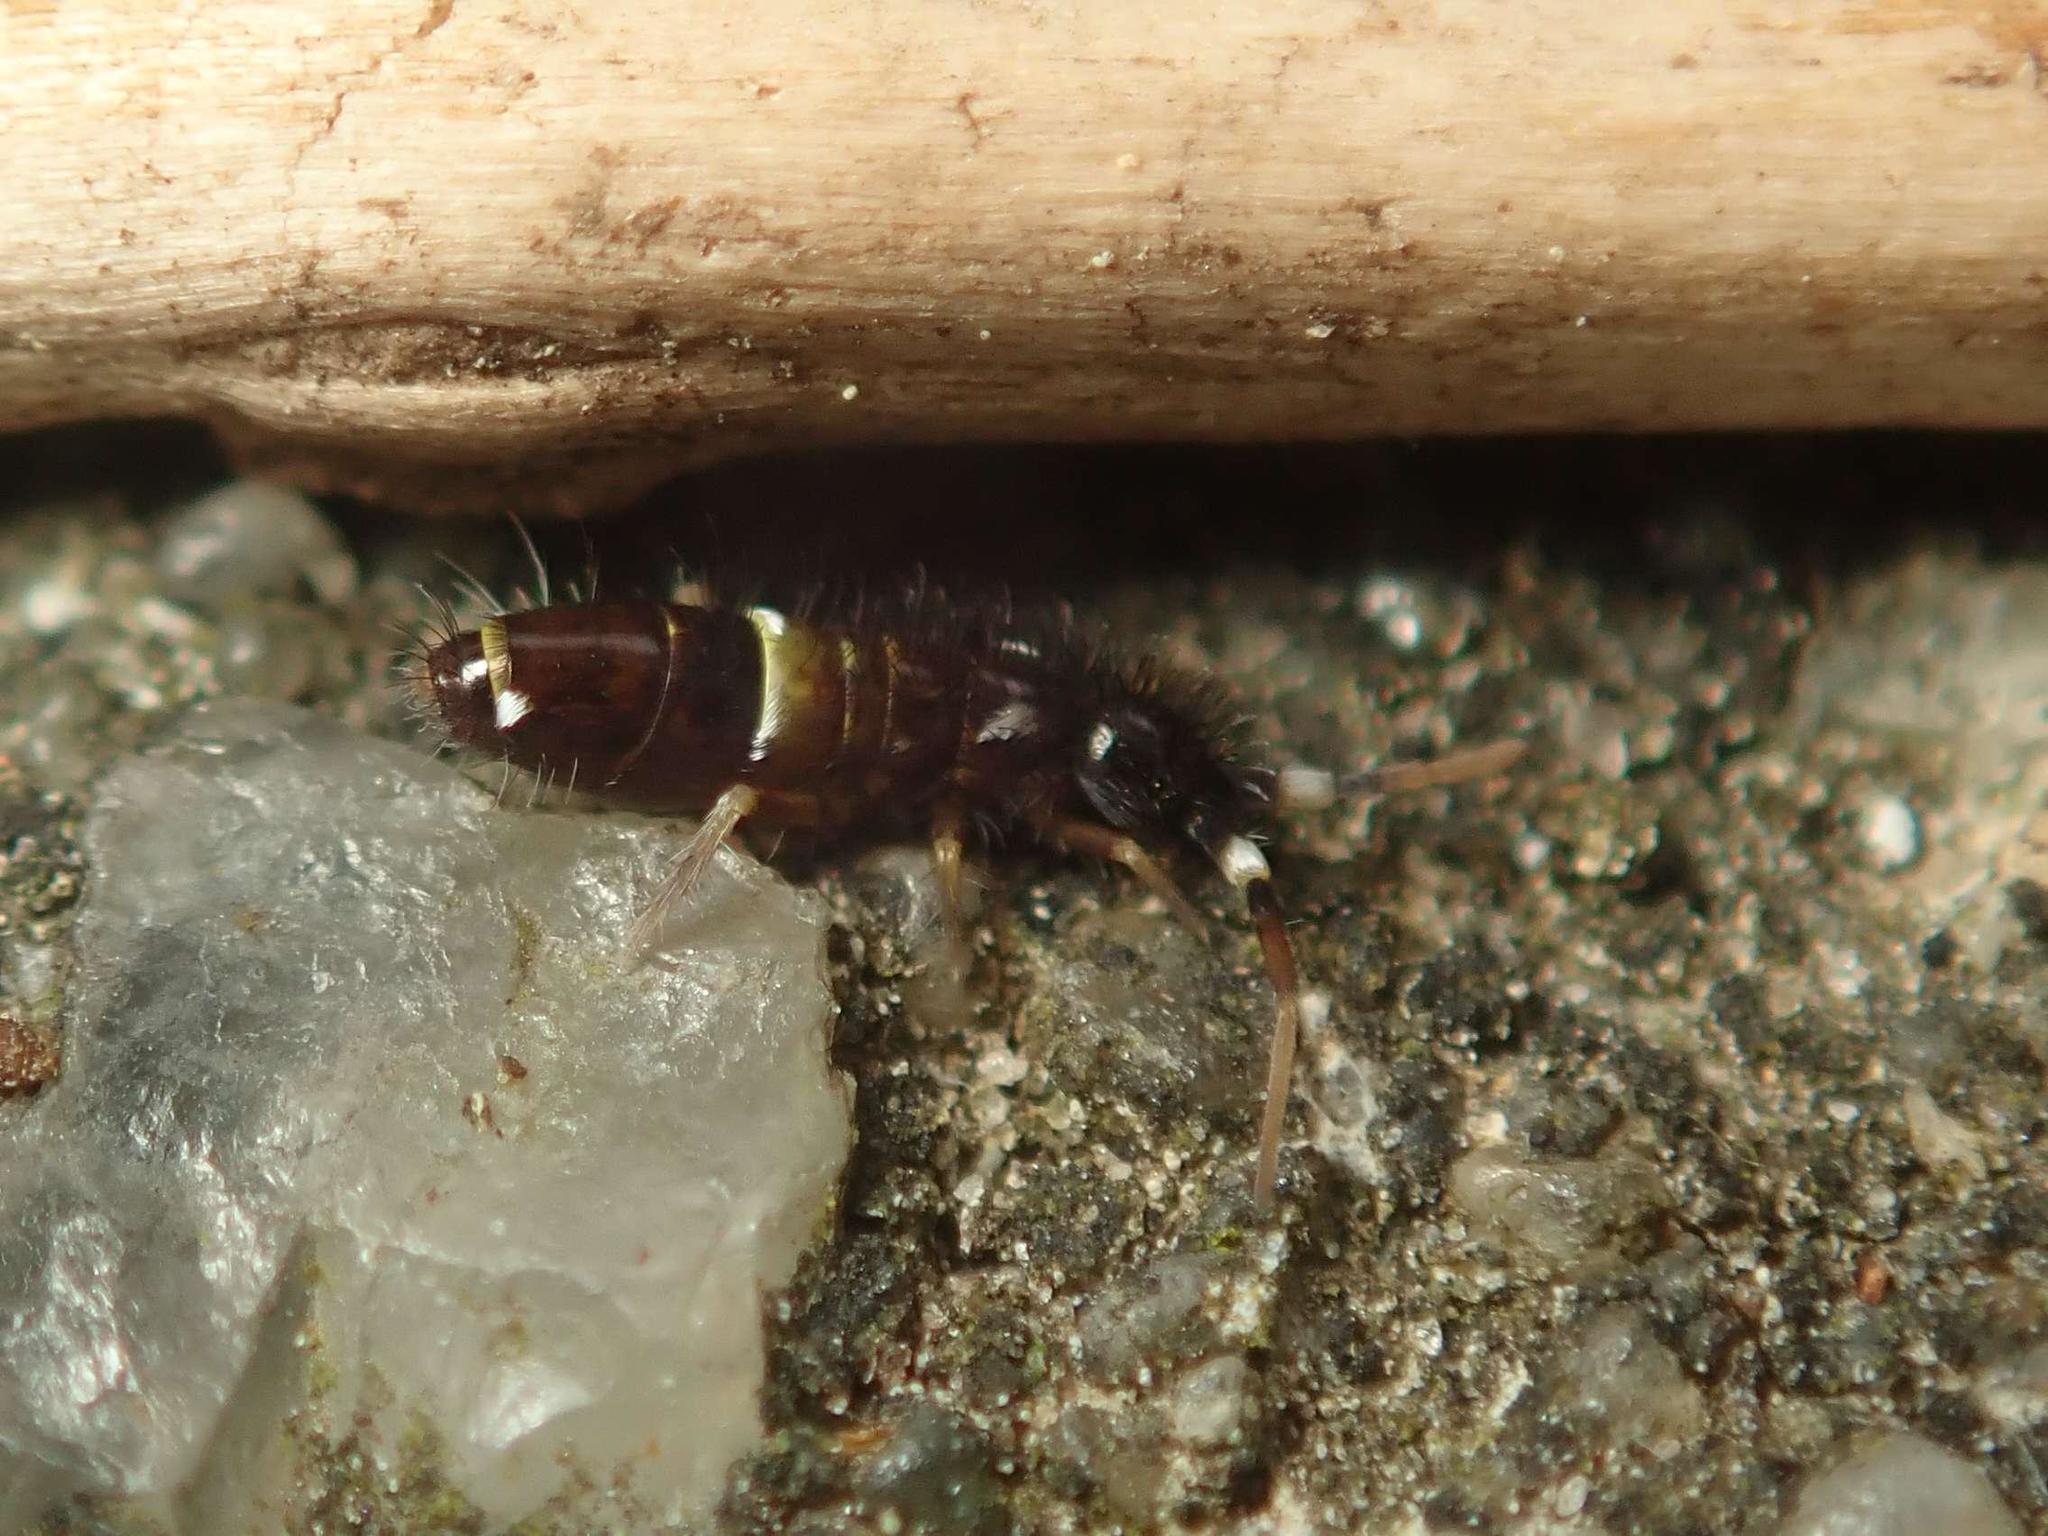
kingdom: Animalia
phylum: Arthropoda
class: Collembola
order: Entomobryomorpha
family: Orchesellidae
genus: Orchesella
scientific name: Orchesella cincta
